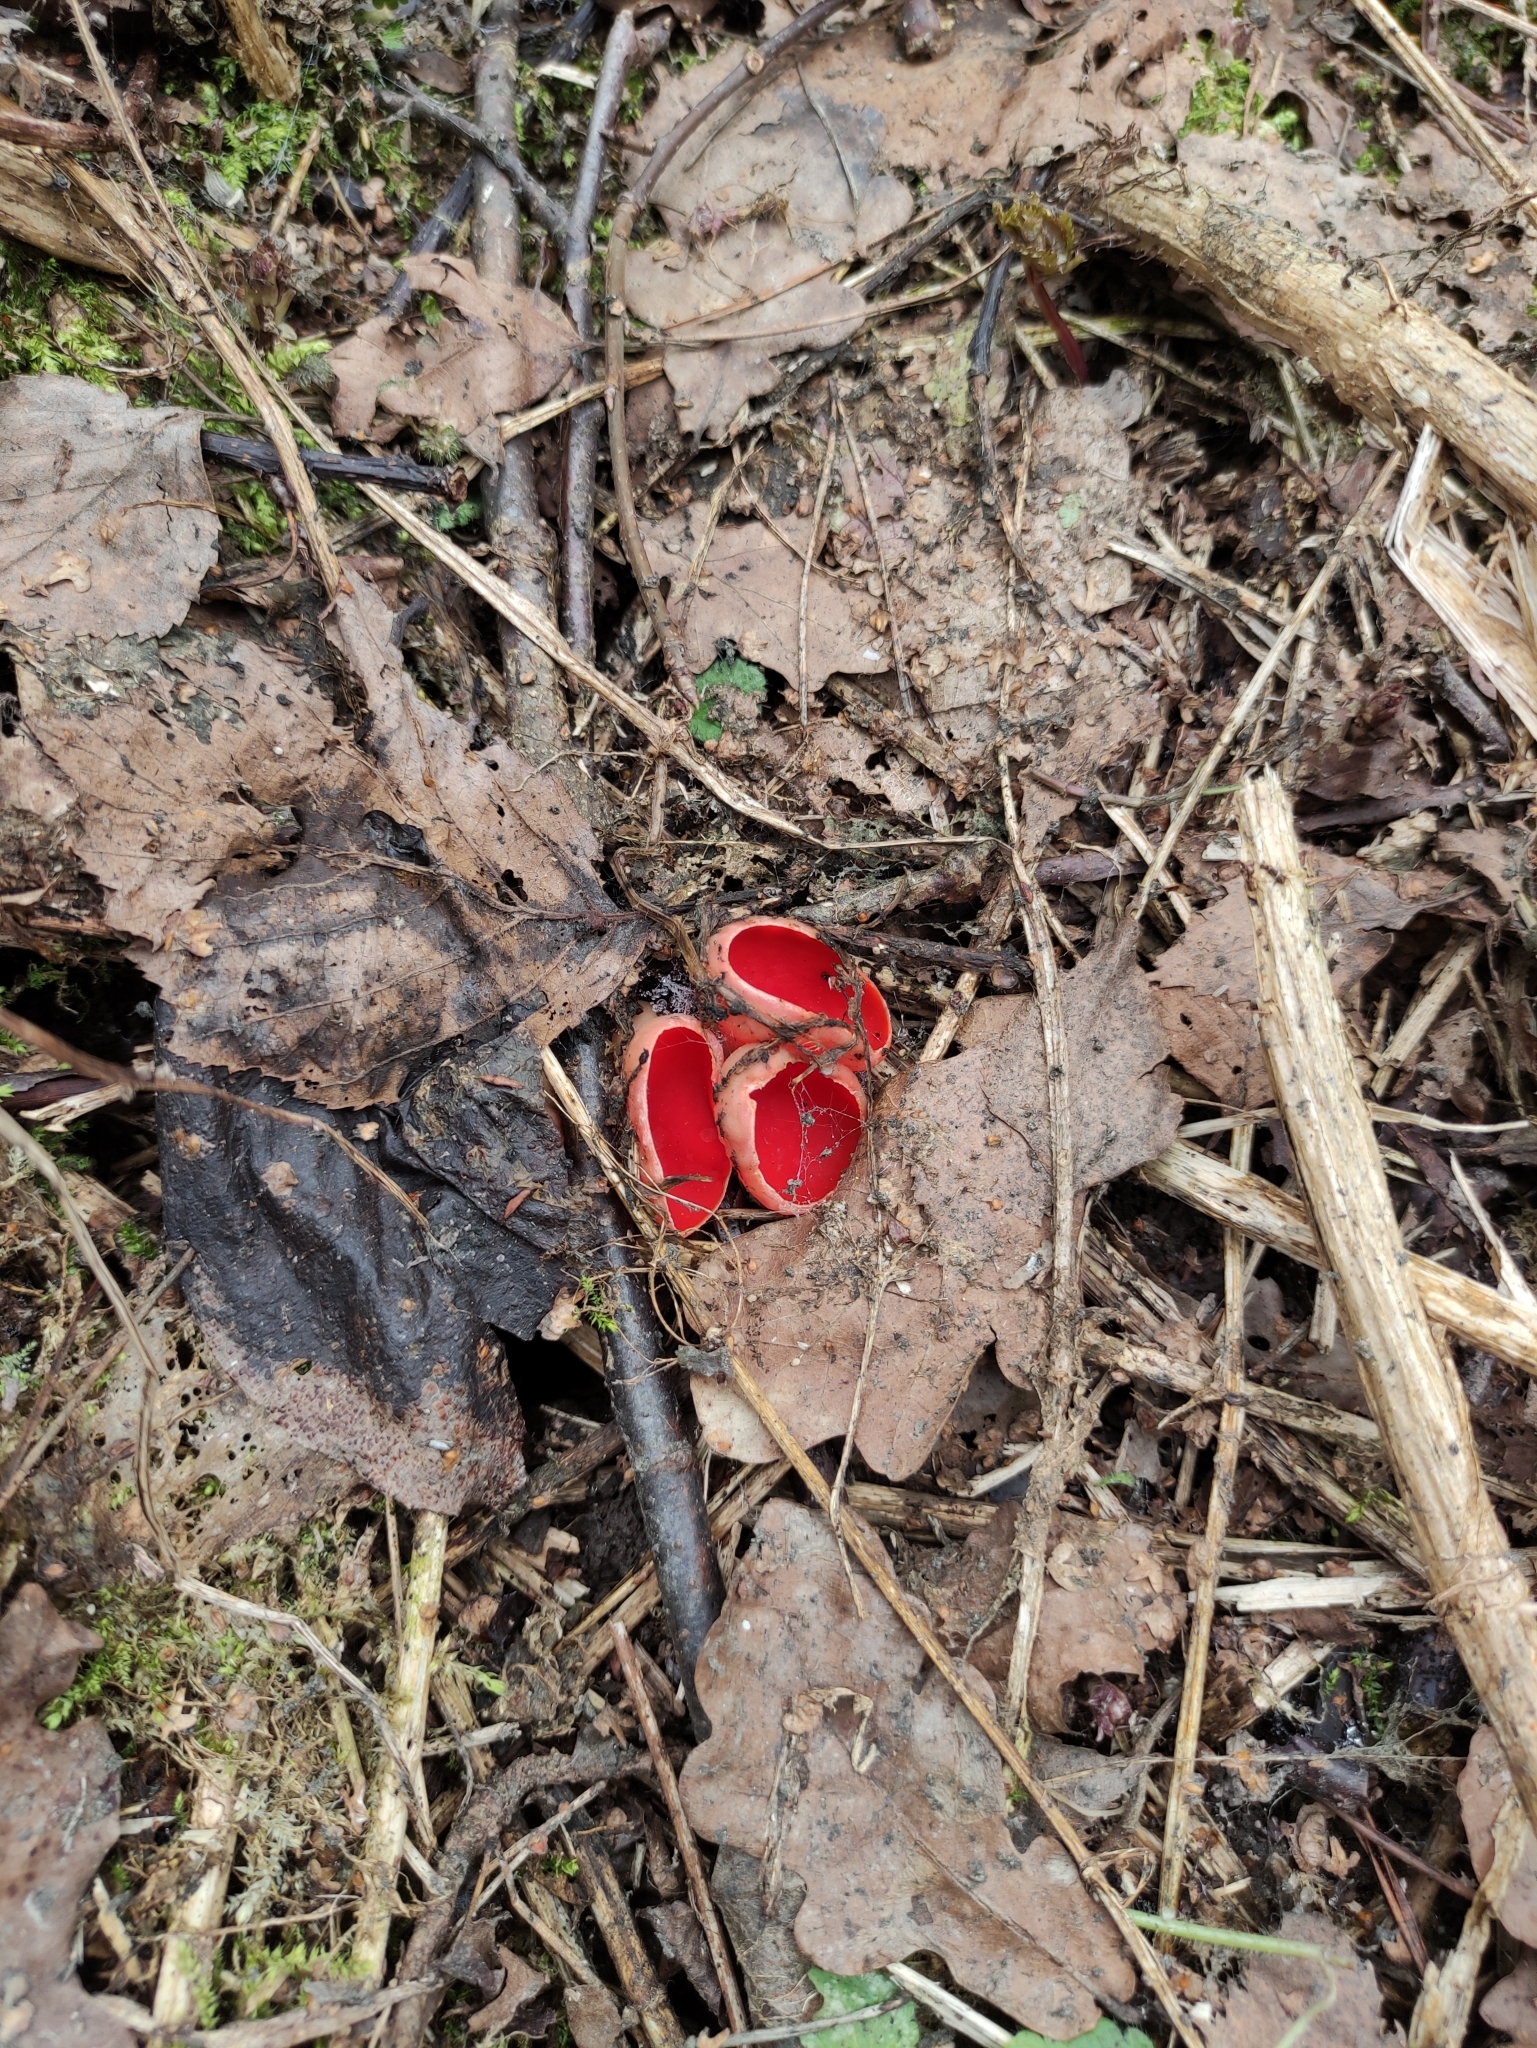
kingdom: Fungi
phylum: Ascomycota
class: Pezizomycetes
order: Pezizales
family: Sarcoscyphaceae
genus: Sarcoscypha
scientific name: Sarcoscypha austriaca
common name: Scarlet elfcup
